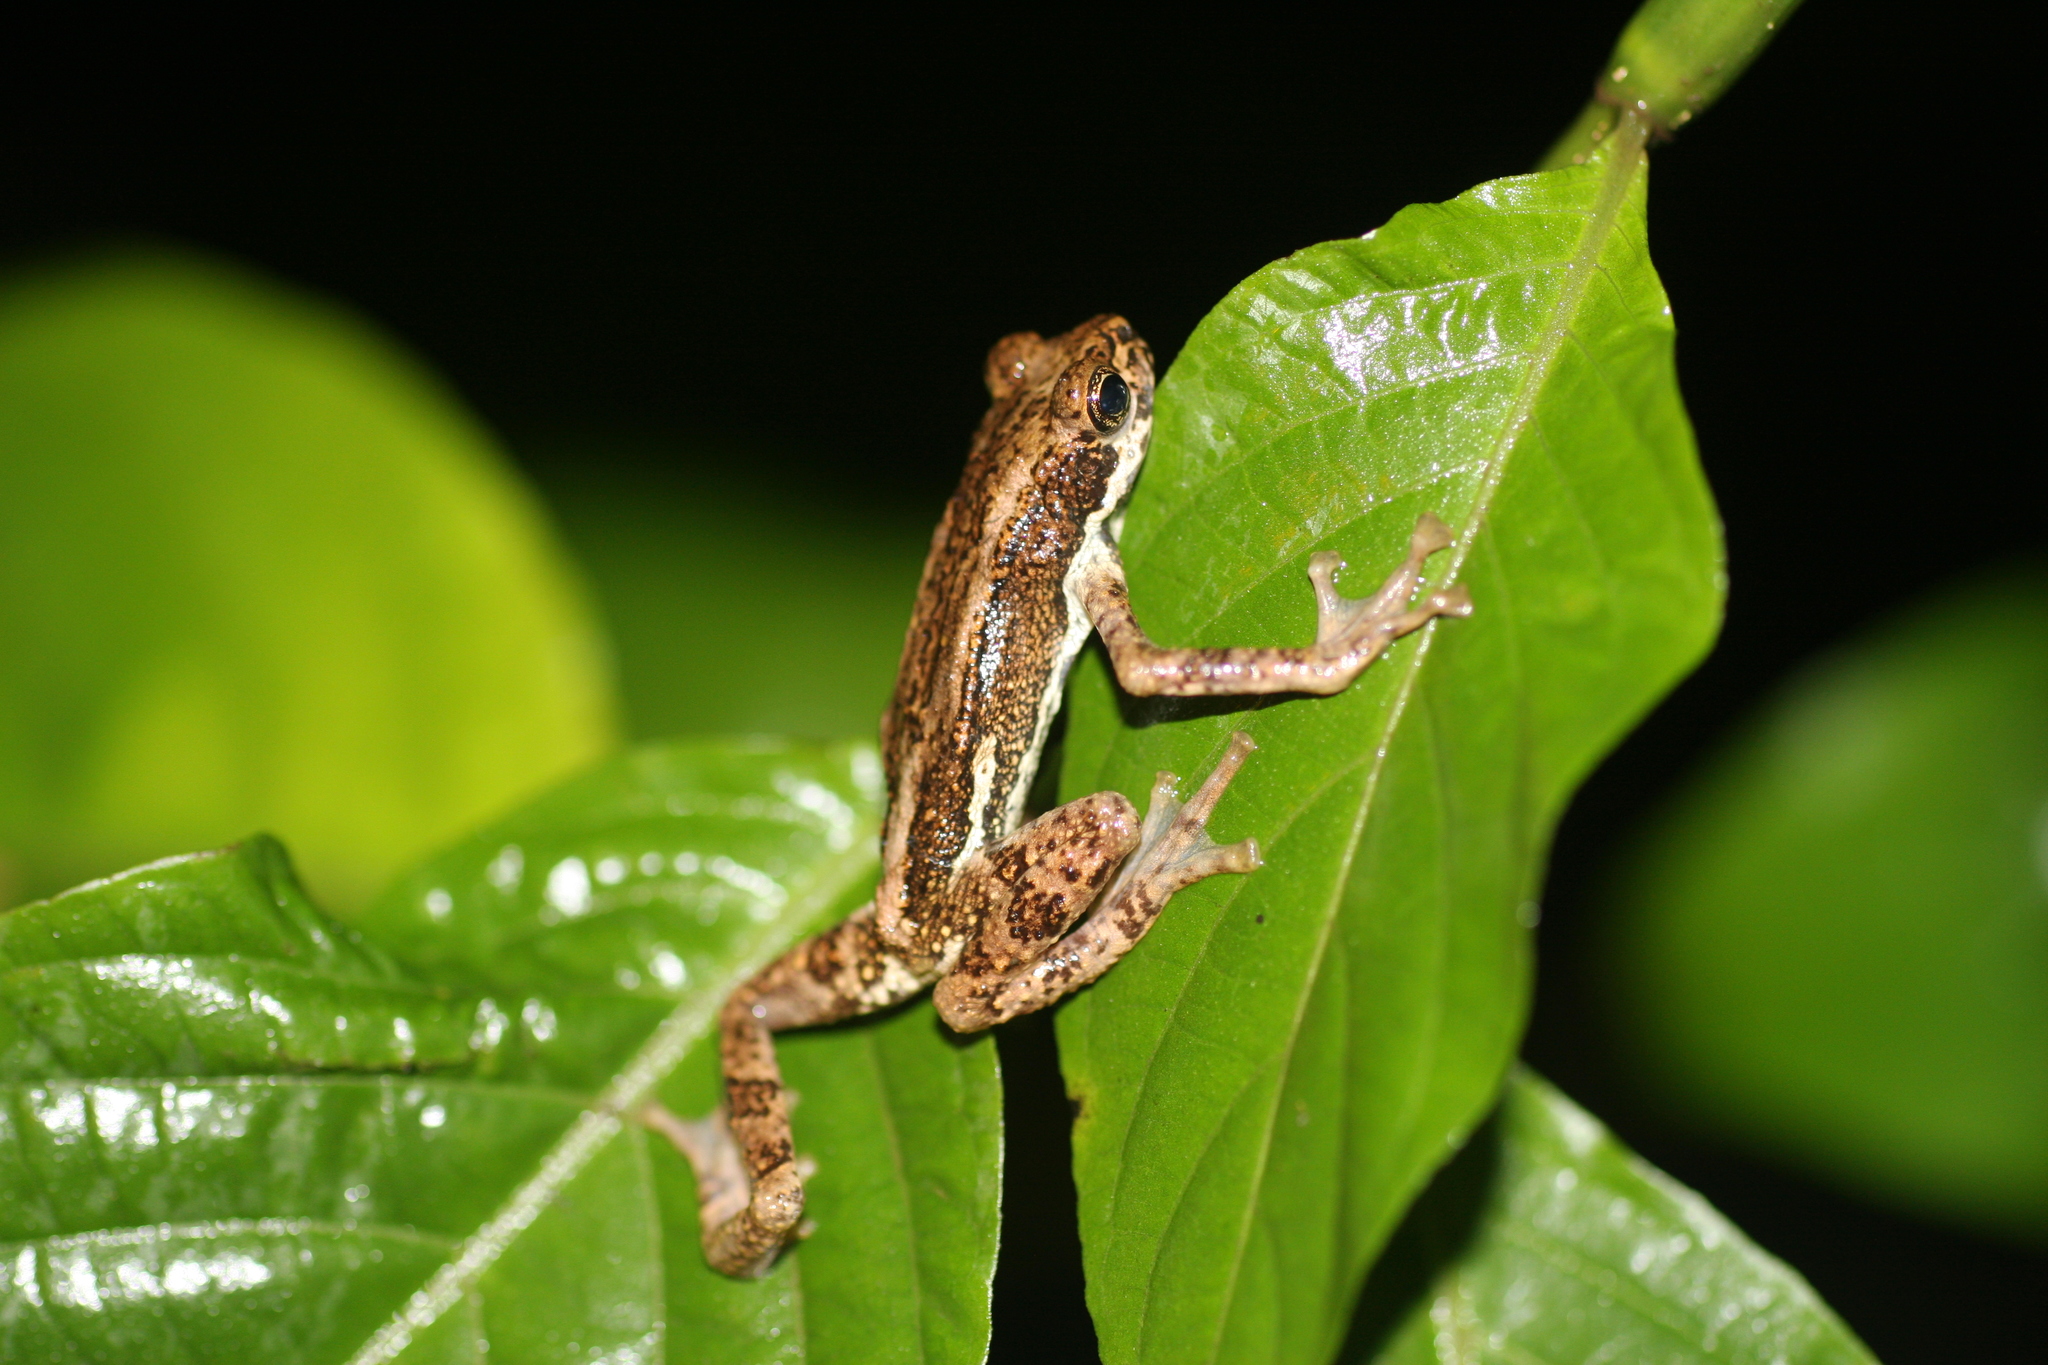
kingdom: Animalia
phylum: Chordata
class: Amphibia
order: Anura
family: Bufonidae
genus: Pedostibes
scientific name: Pedostibes tuberculosus
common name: Malabar tree toad
